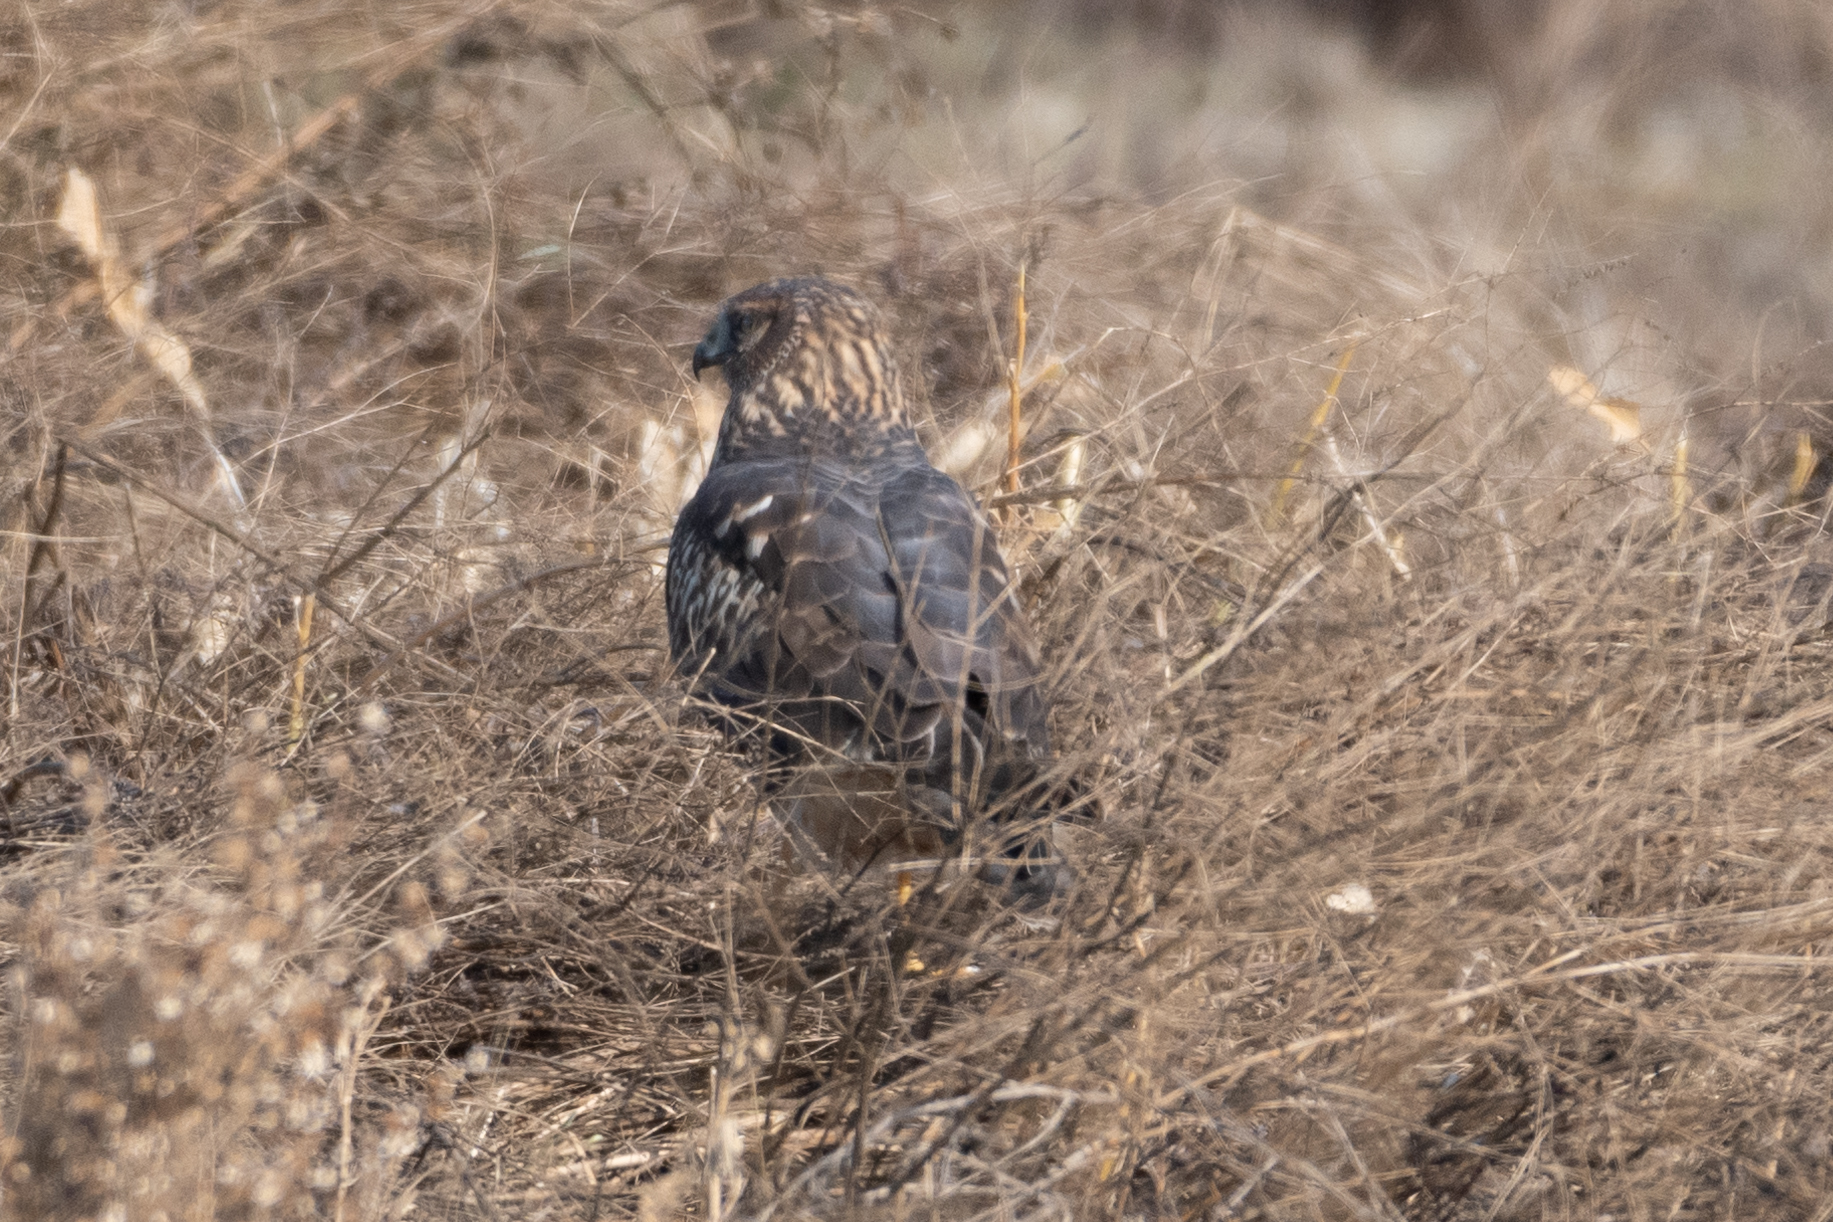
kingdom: Animalia
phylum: Chordata
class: Aves
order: Accipitriformes
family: Accipitridae
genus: Circus
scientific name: Circus cyaneus
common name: Hen harrier
